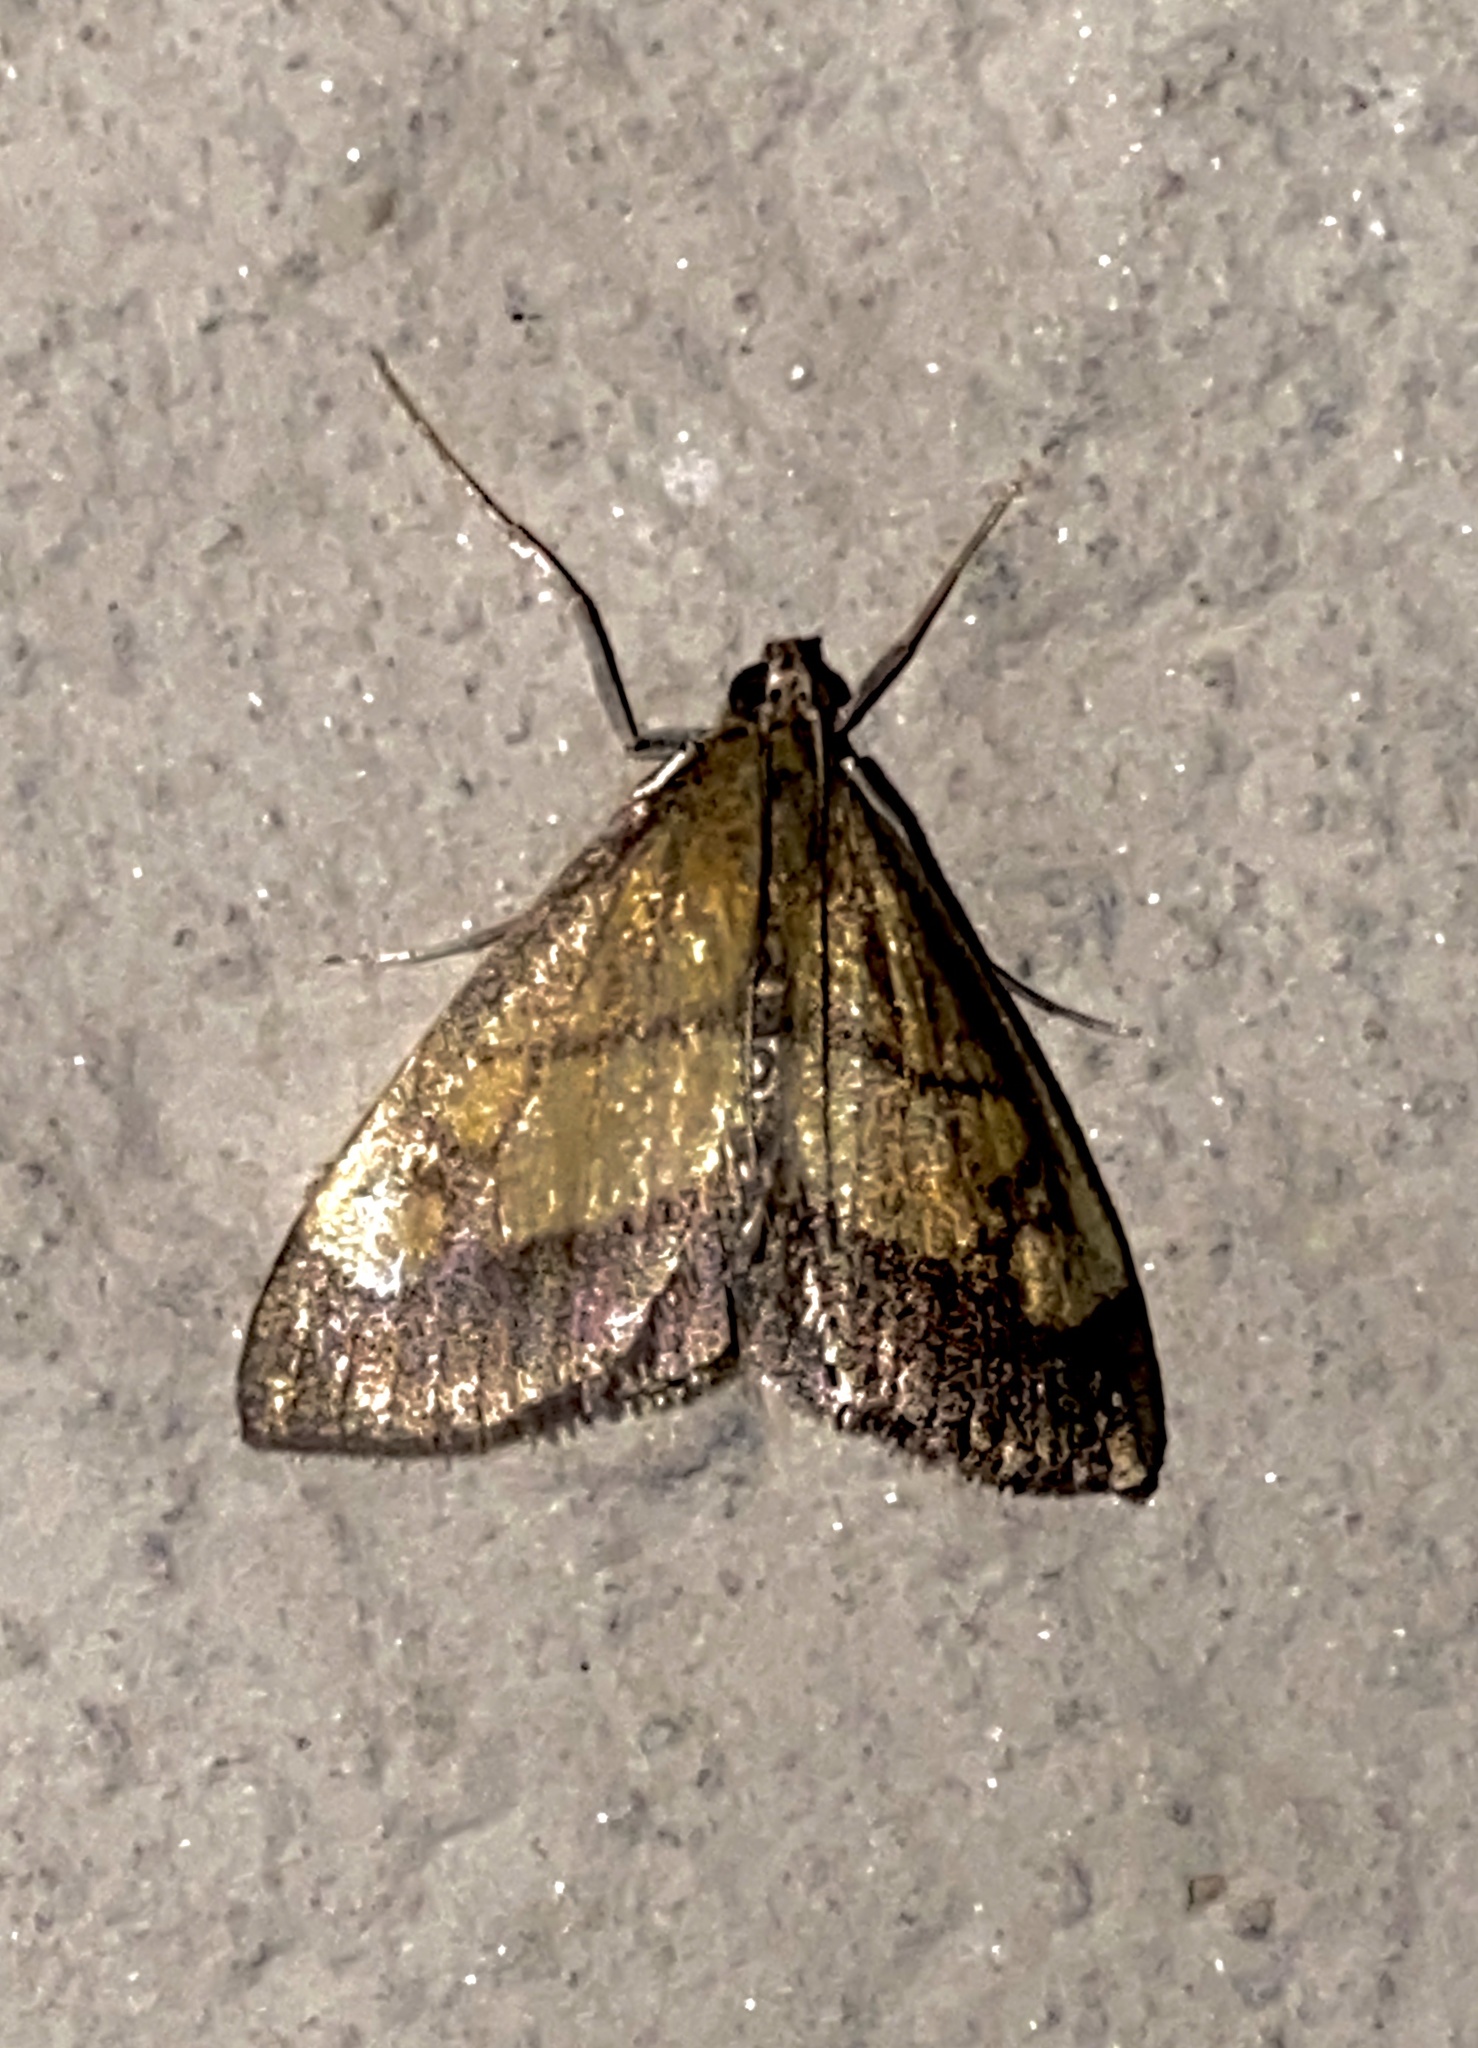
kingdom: Animalia
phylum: Arthropoda
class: Insecta
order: Lepidoptera
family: Crambidae
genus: Evergestis
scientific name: Evergestis limbata
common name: Dark bordered pearl
